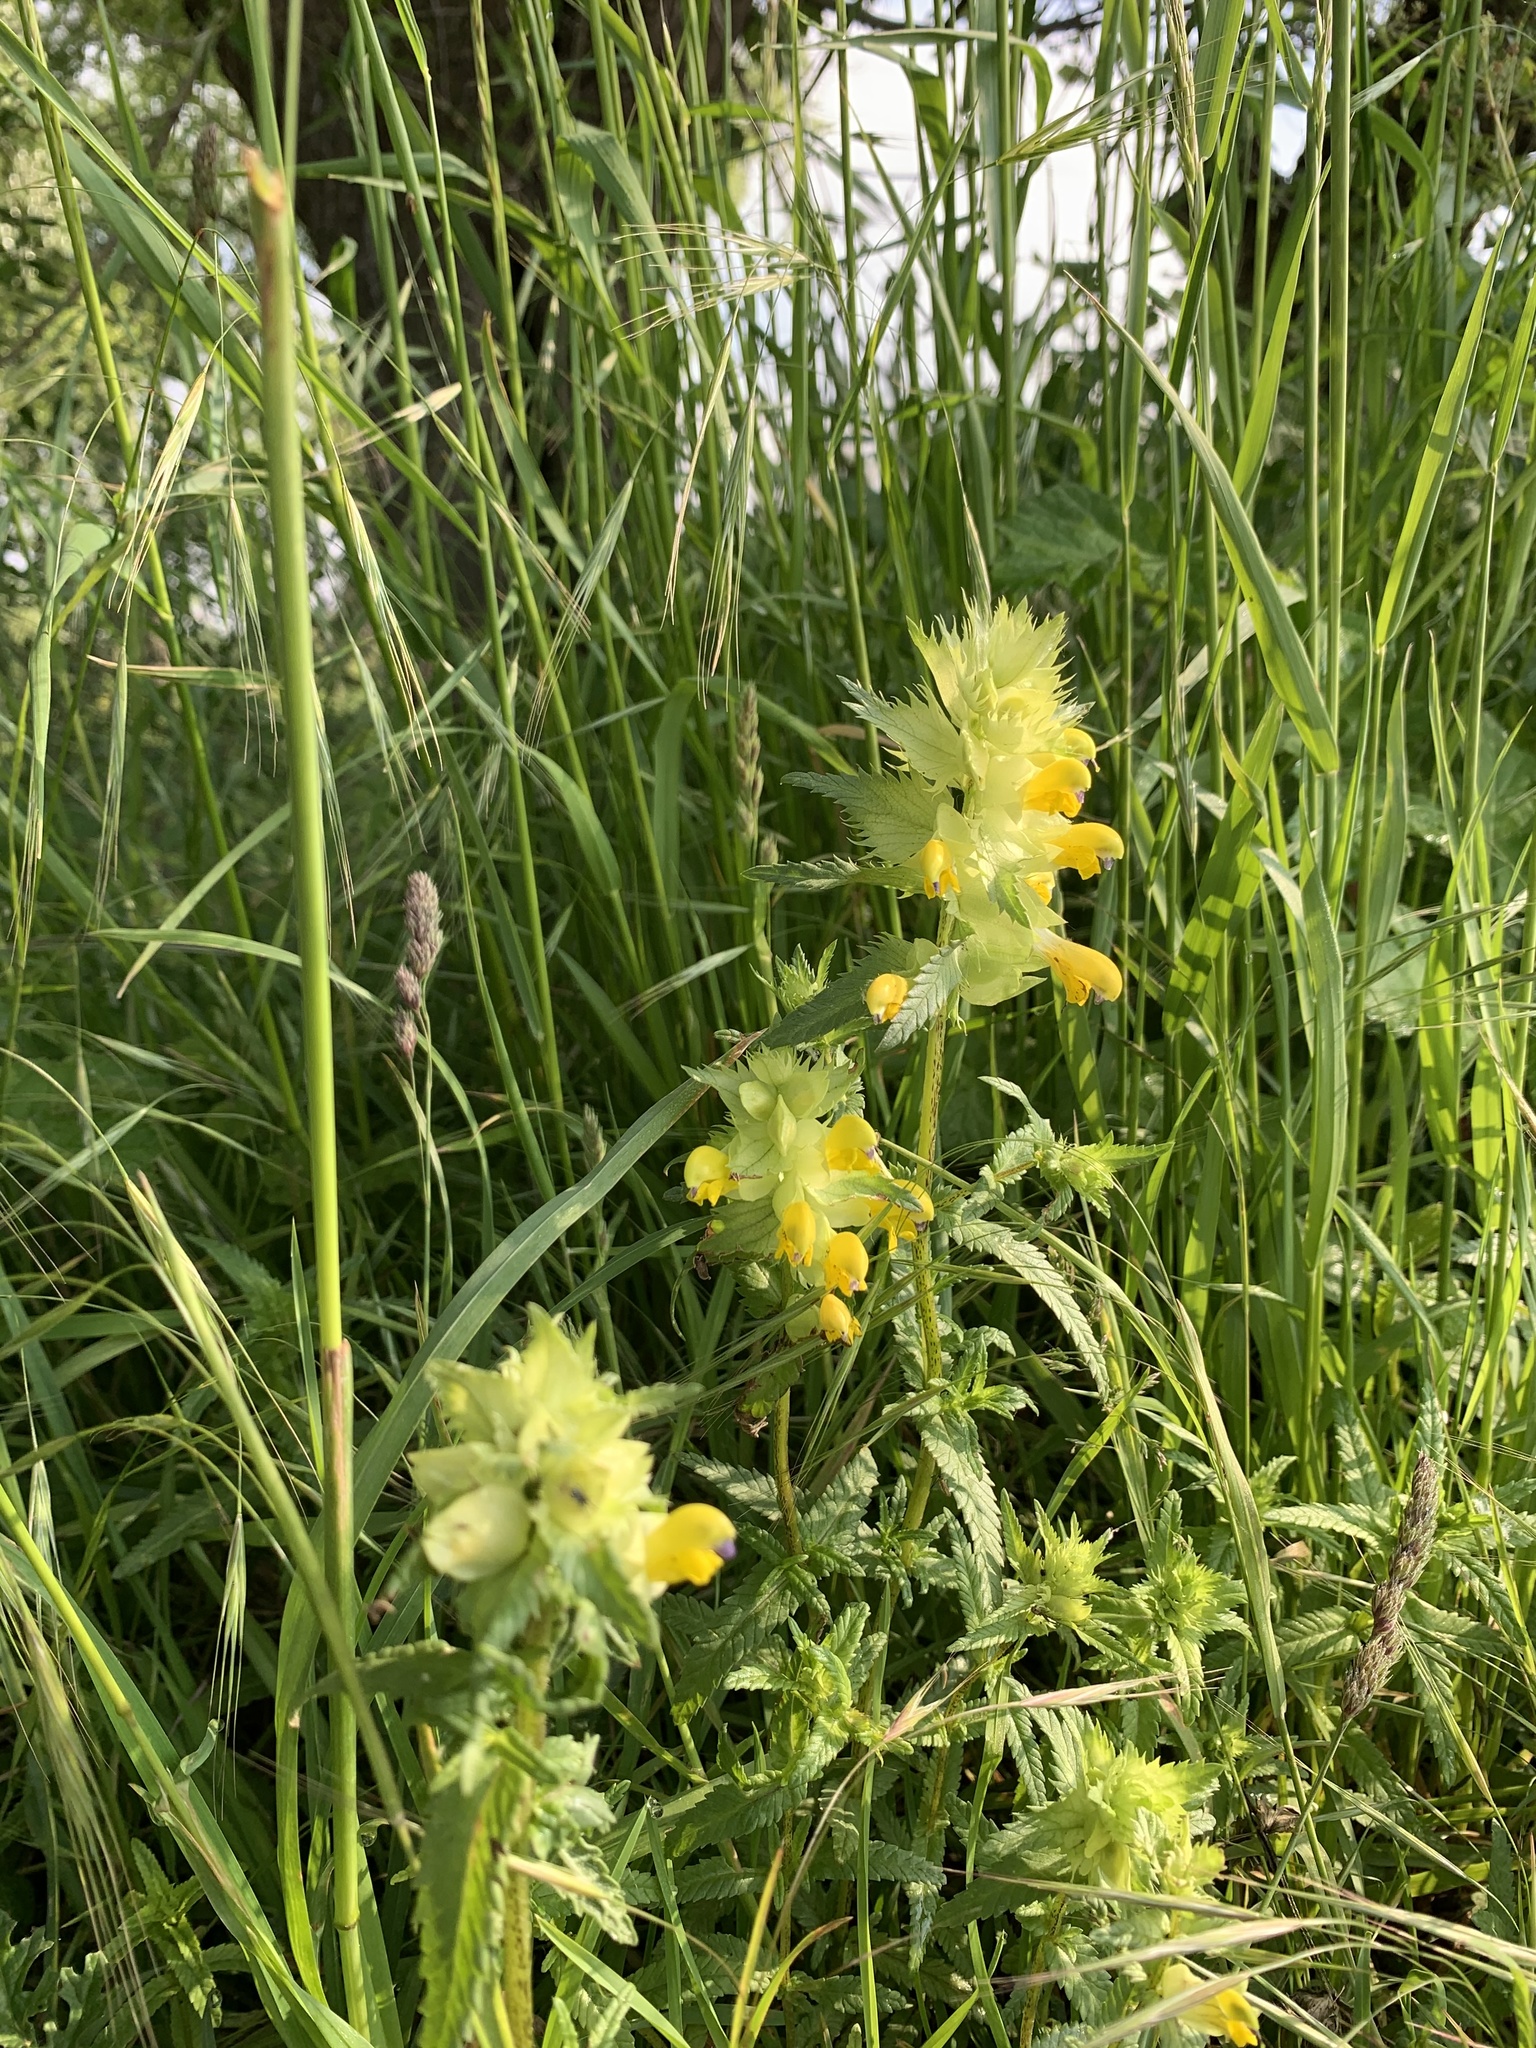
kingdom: Plantae
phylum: Tracheophyta
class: Magnoliopsida
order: Lamiales
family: Orobanchaceae
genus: Rhinanthus
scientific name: Rhinanthus serotinus
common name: Late-flowering yellow rattle
